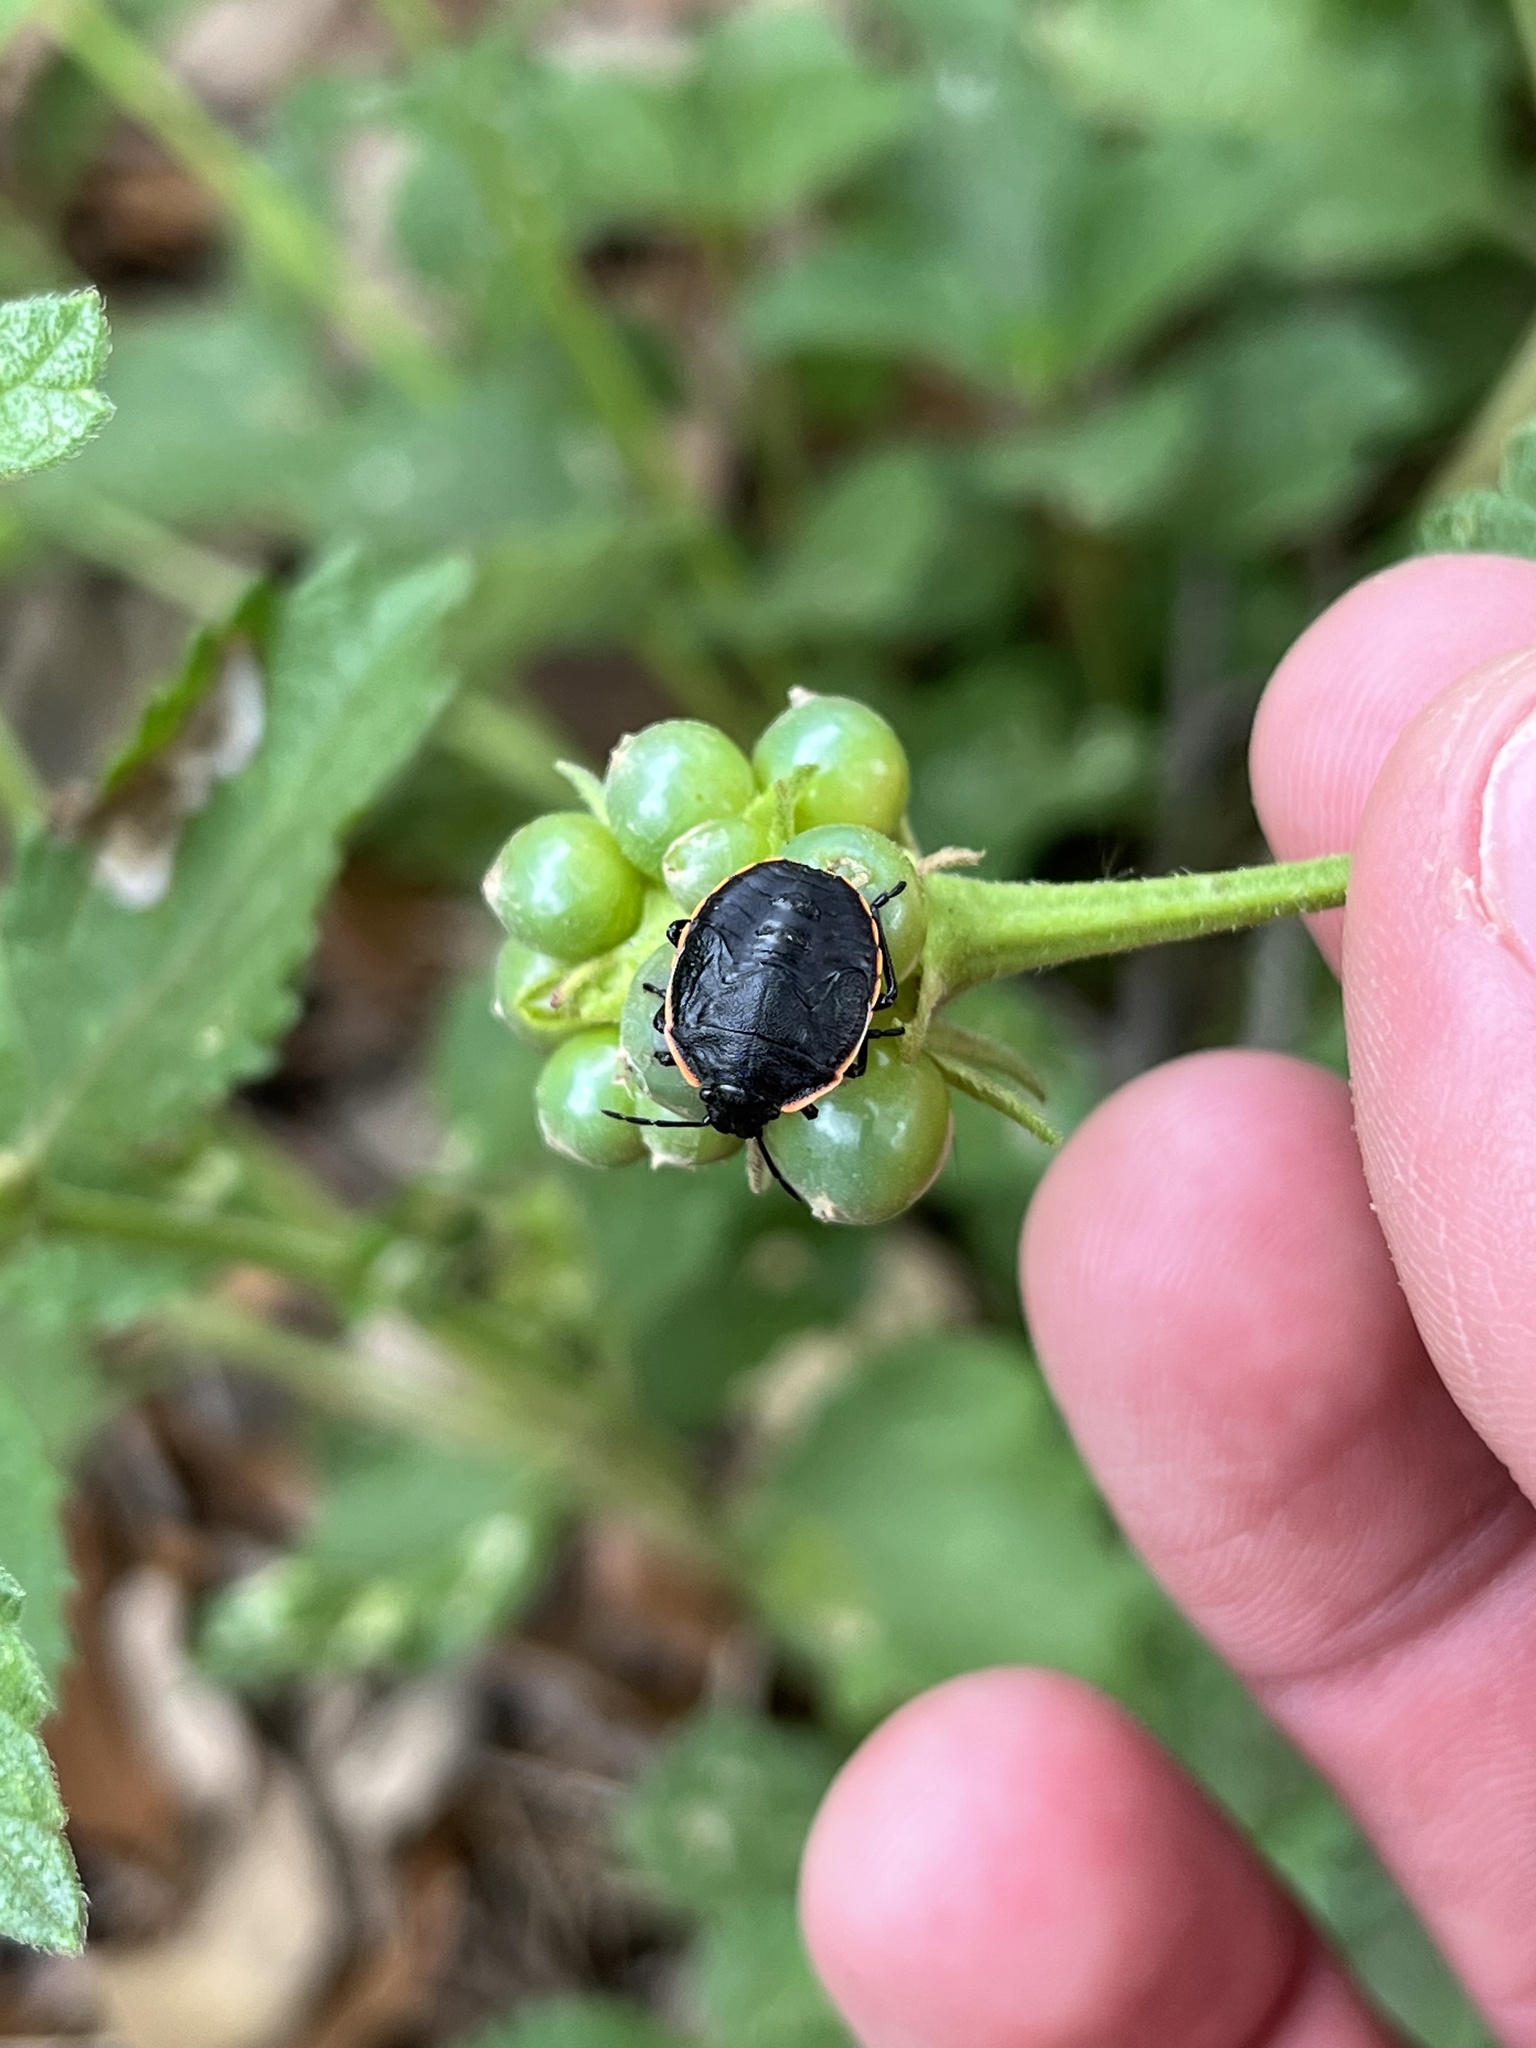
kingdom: Animalia
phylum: Arthropoda
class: Insecta
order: Hemiptera
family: Pentatomidae
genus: Chlorochroa
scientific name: Chlorochroa ligata
